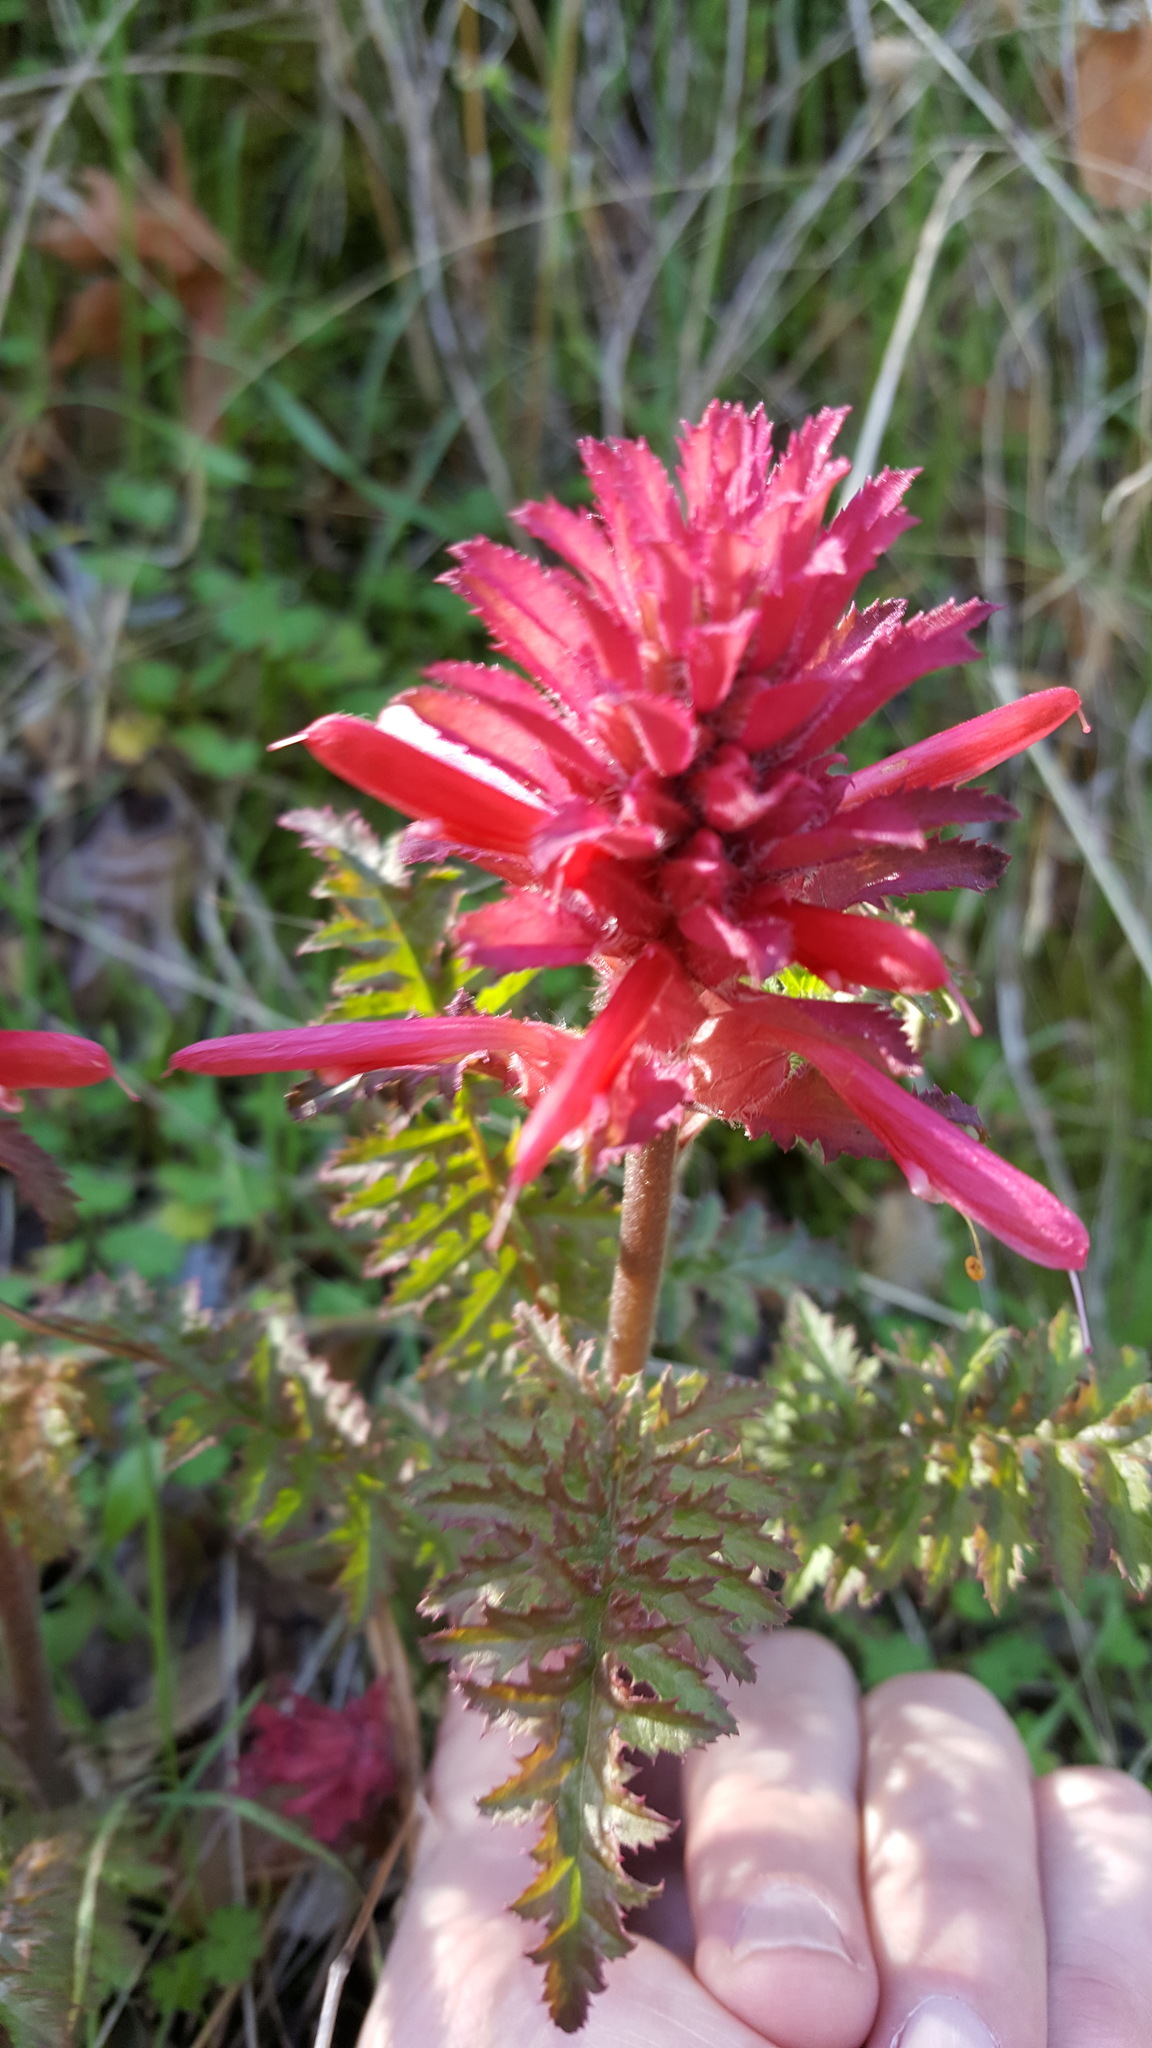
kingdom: Plantae
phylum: Tracheophyta
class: Magnoliopsida
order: Lamiales
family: Orobanchaceae
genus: Pedicularis
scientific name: Pedicularis densiflora
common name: Indian warrior
